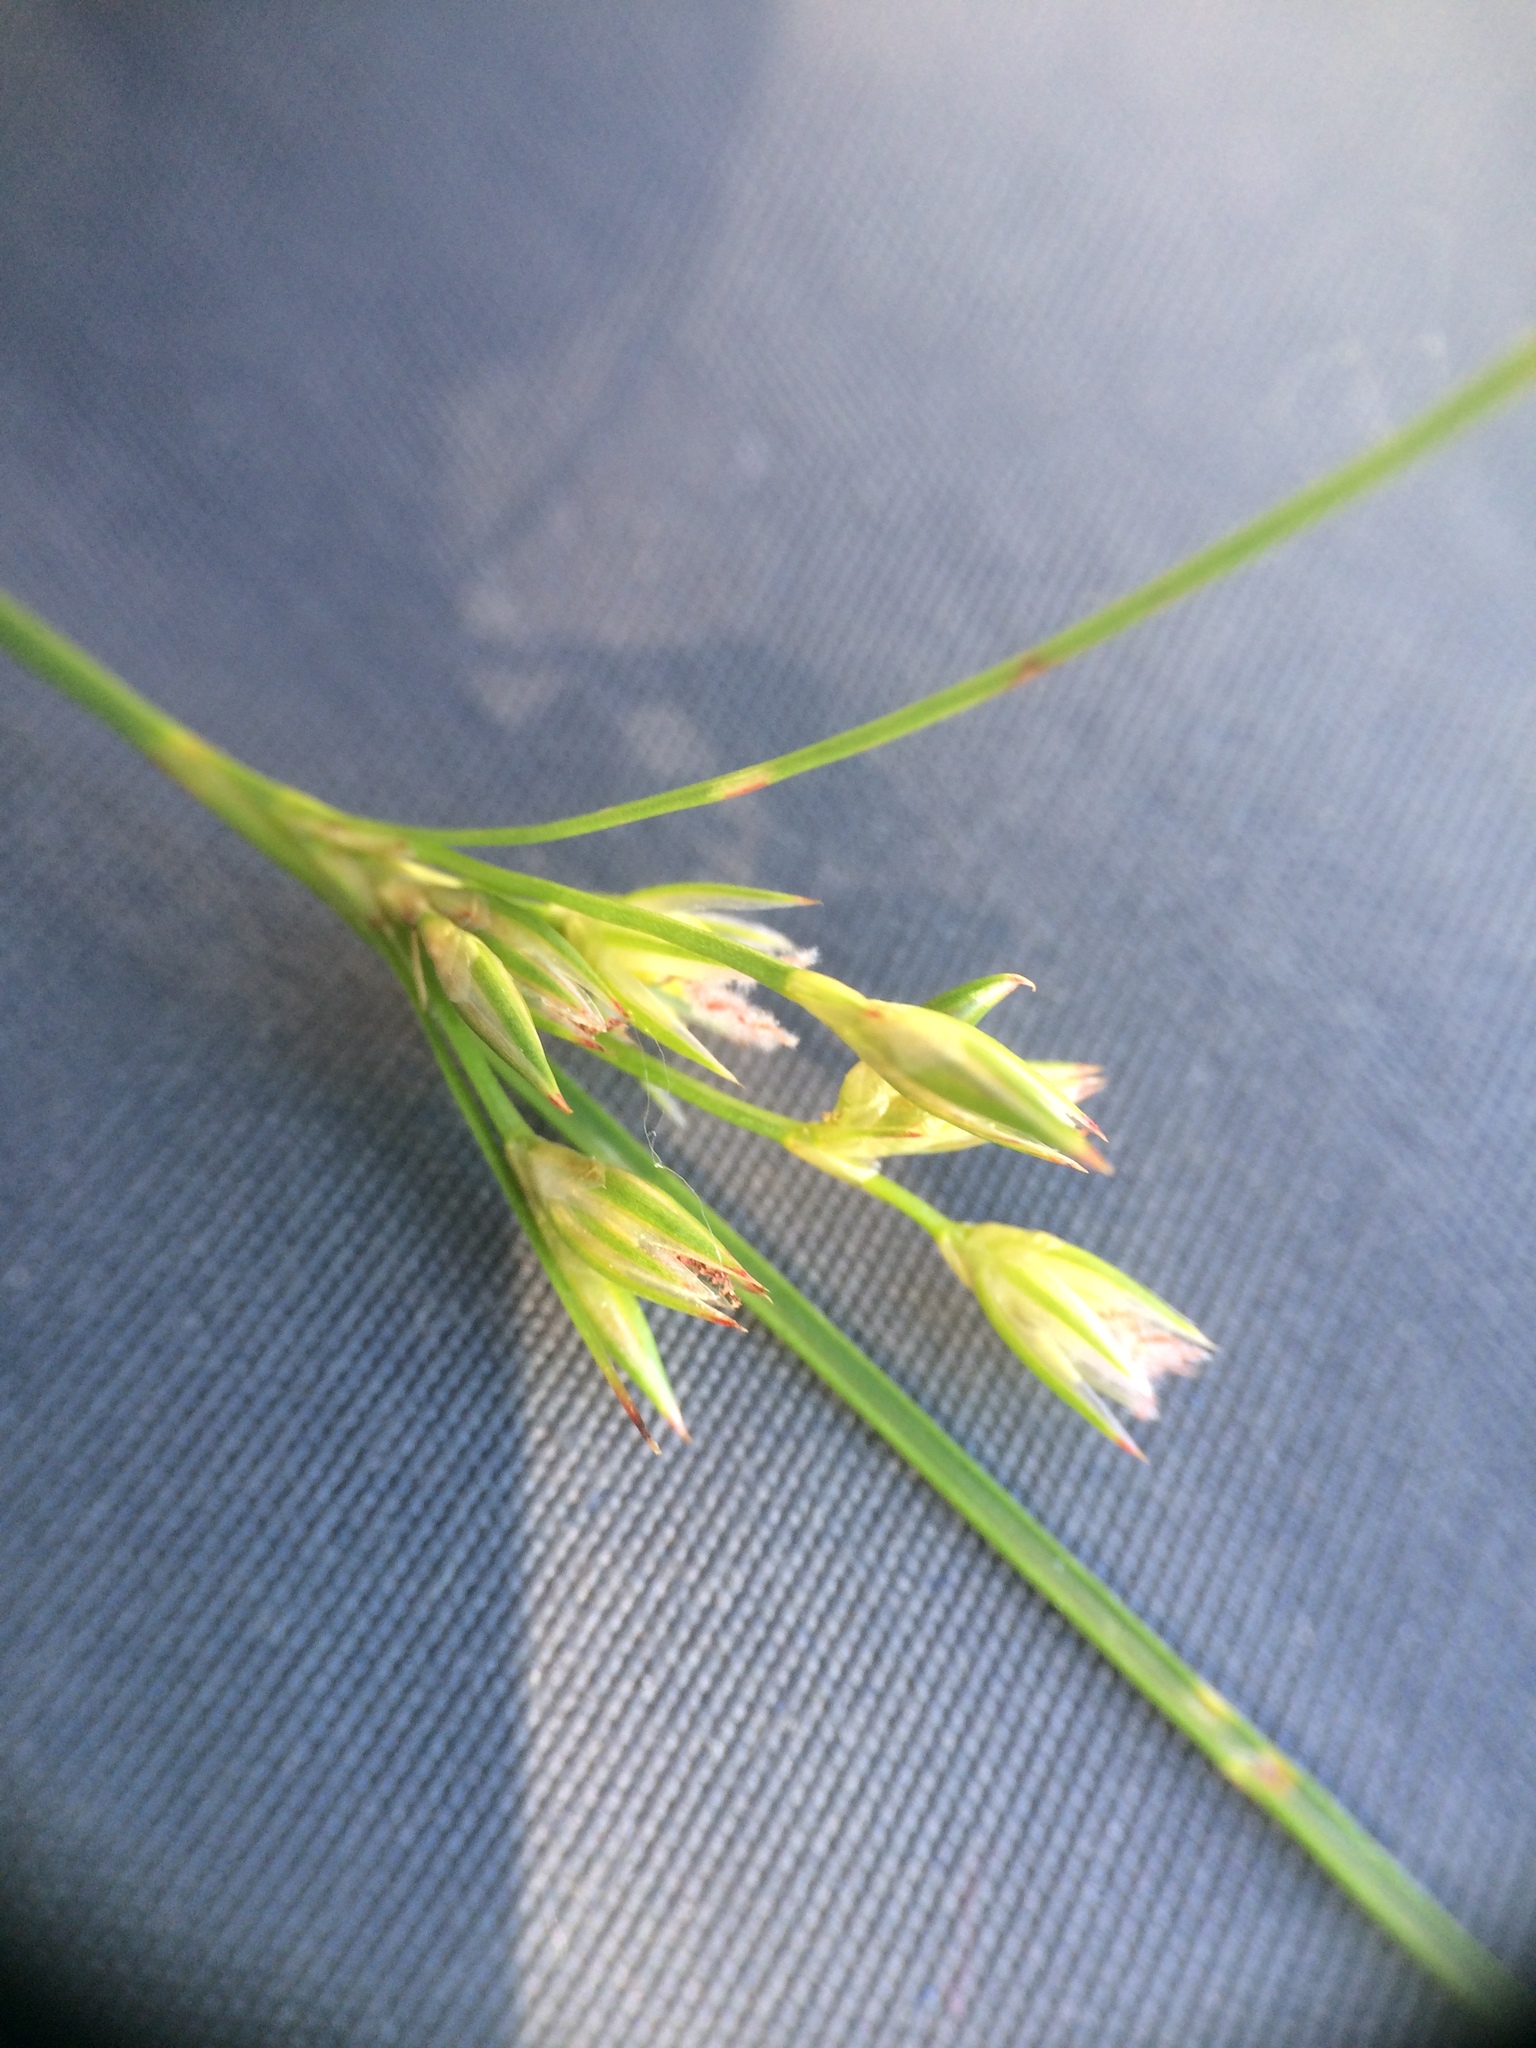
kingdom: Plantae
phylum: Tracheophyta
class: Liliopsida
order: Poales
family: Juncaceae
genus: Juncus
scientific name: Juncus dudleyi
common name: Dudley's rush
